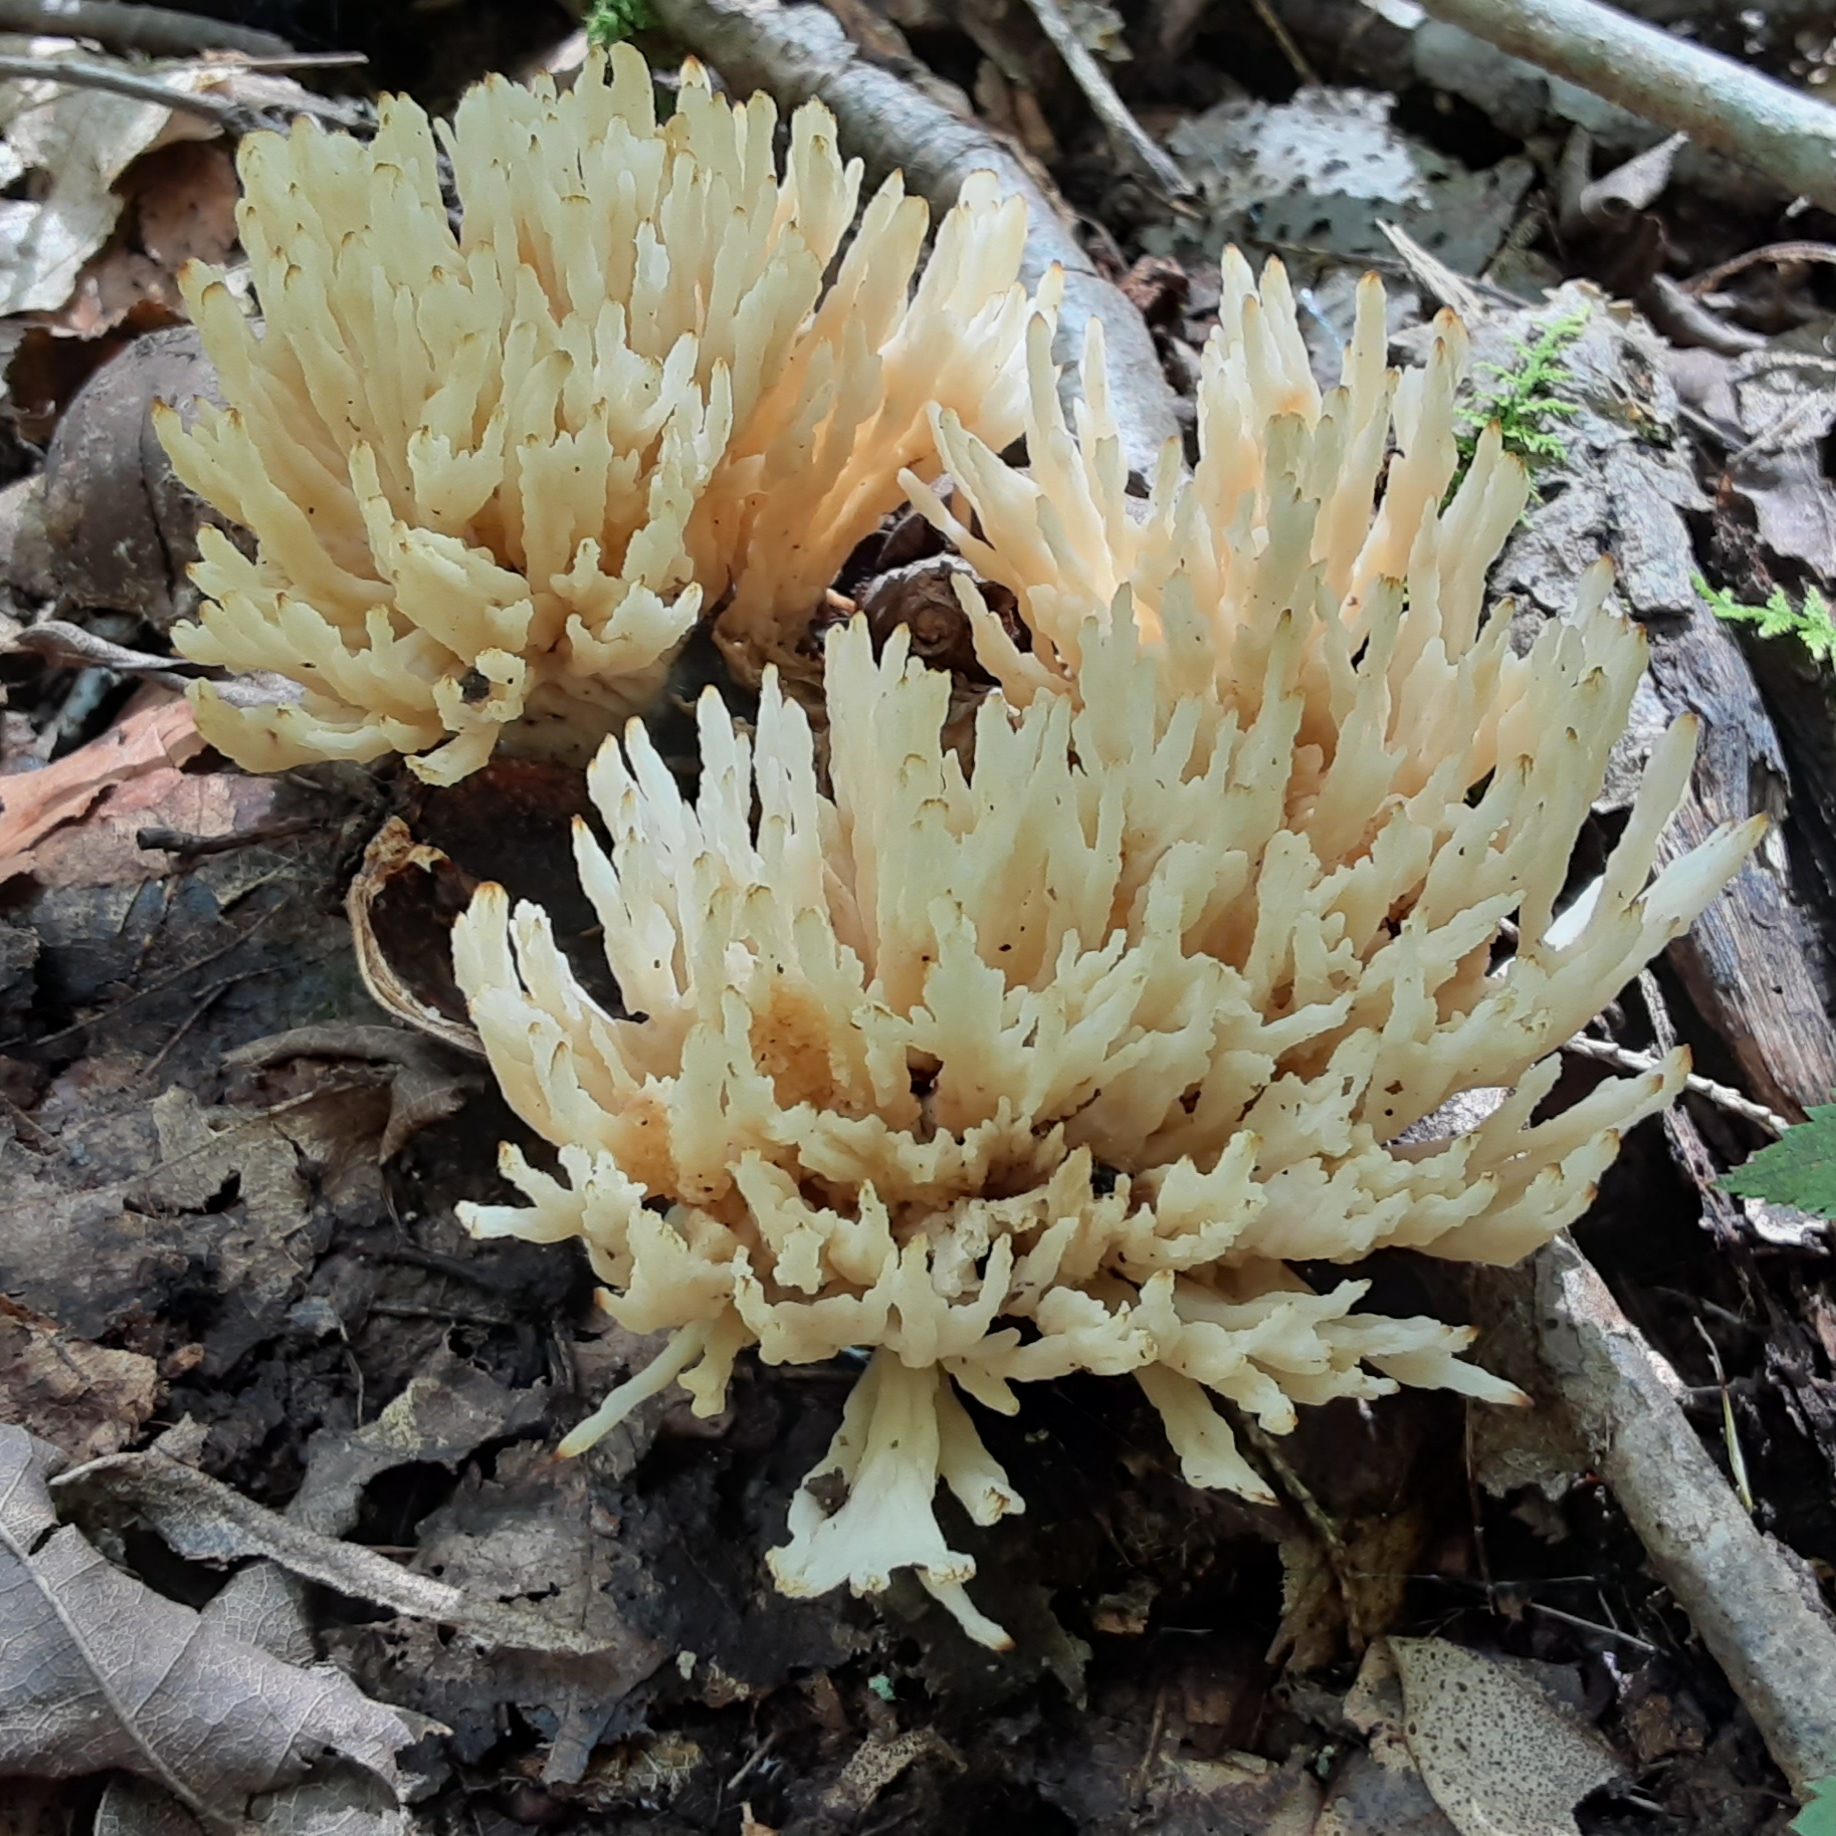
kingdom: Fungi
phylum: Basidiomycota
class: Agaricomycetes
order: Sebacinales
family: Sebacinaceae
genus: Sebacina
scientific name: Sebacina schweinitzii
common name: Jellied false coral fungus
